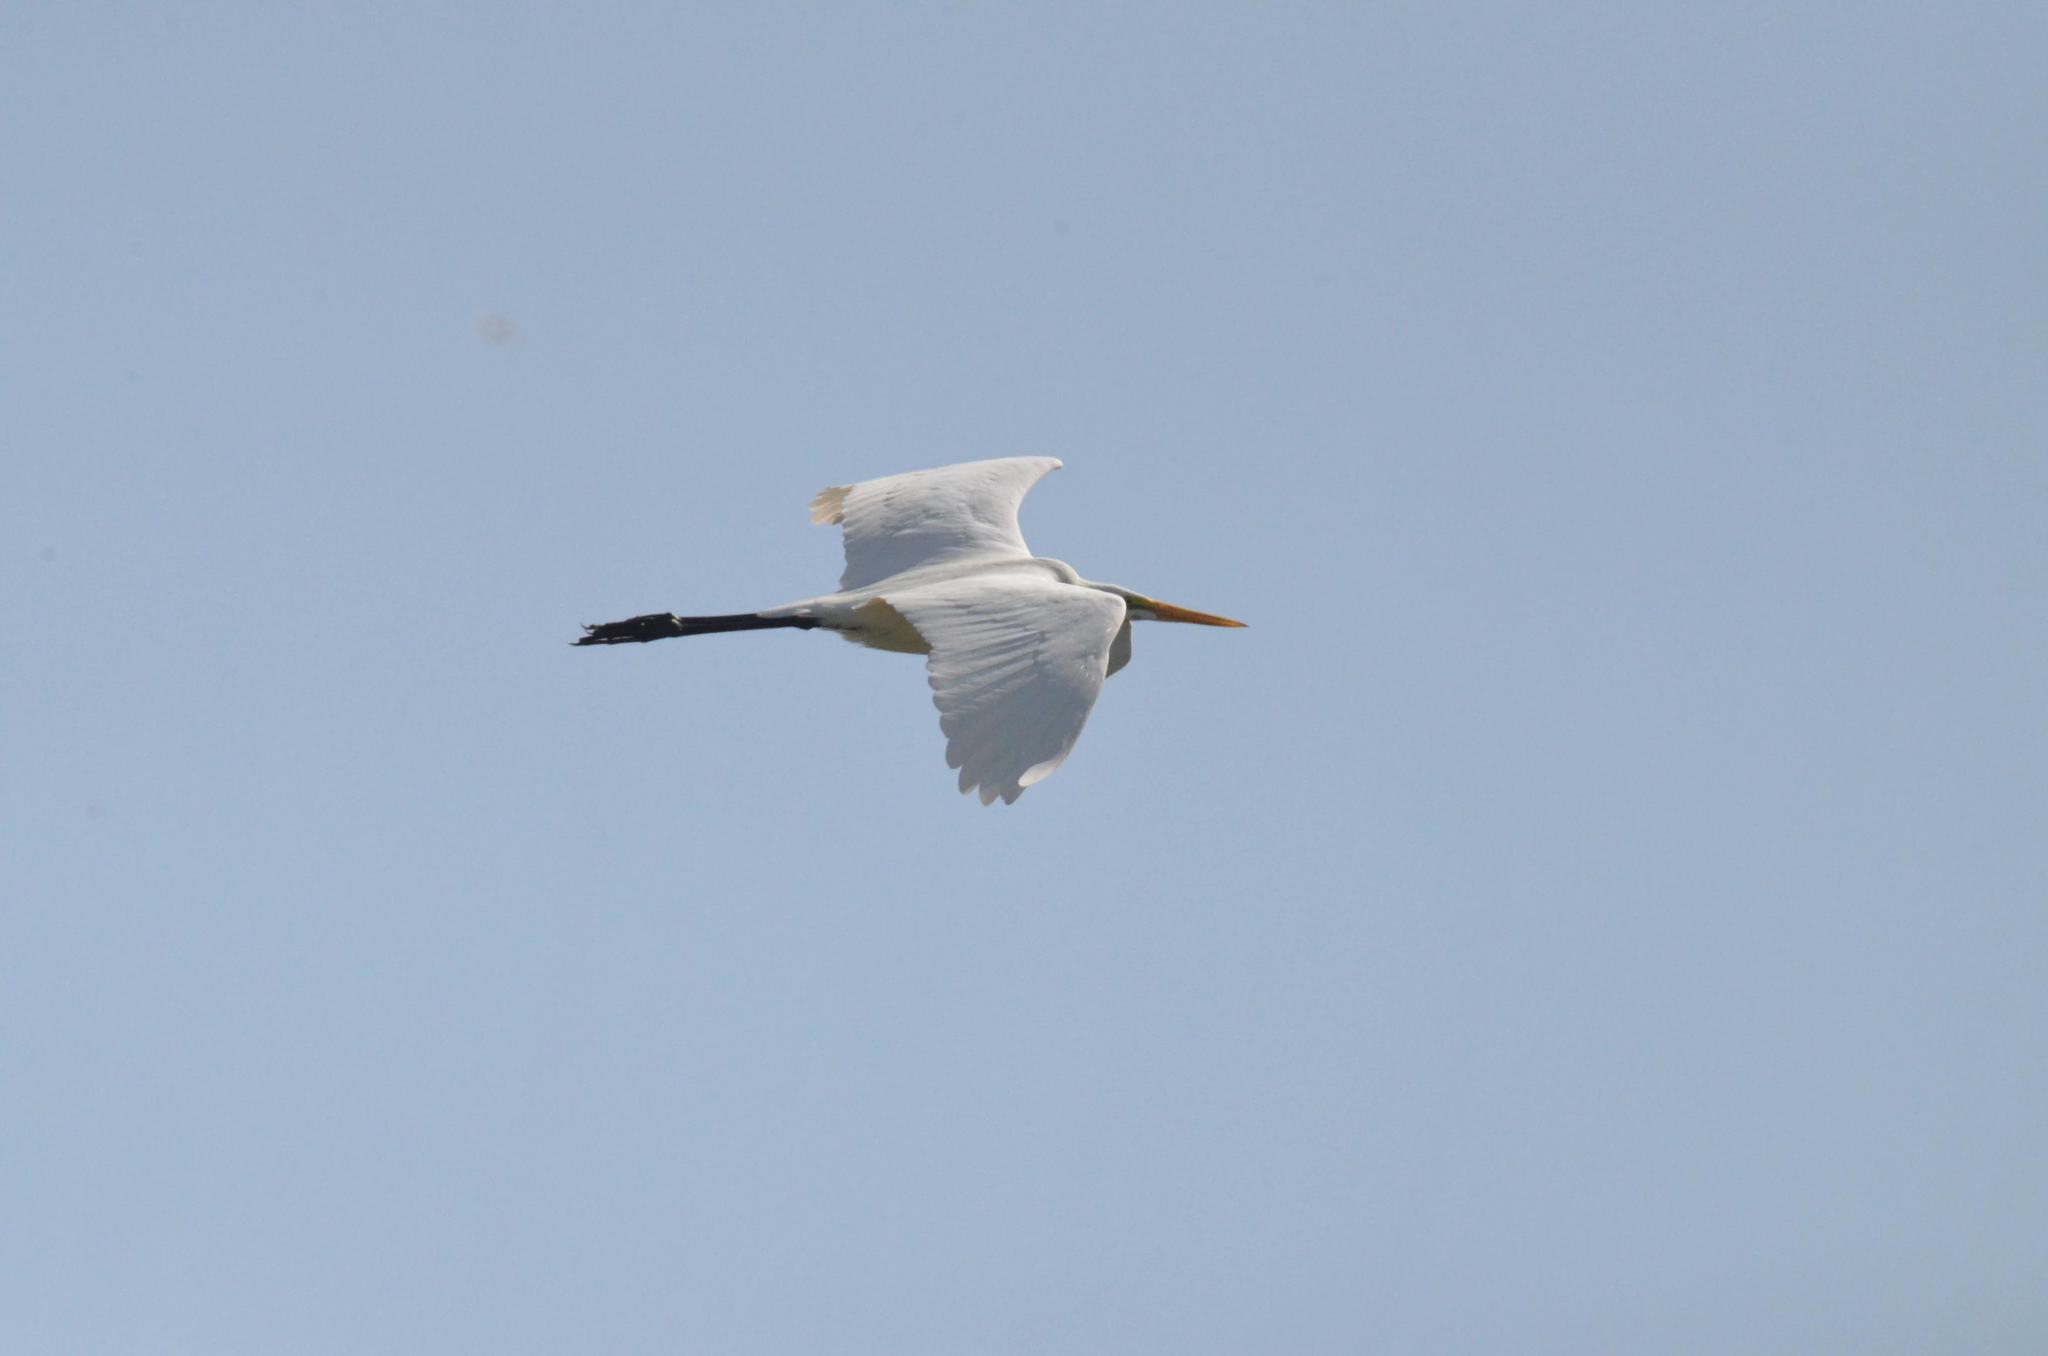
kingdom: Animalia
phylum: Chordata
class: Aves
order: Pelecaniformes
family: Ardeidae
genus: Ardea
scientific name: Ardea alba
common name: Great egret
